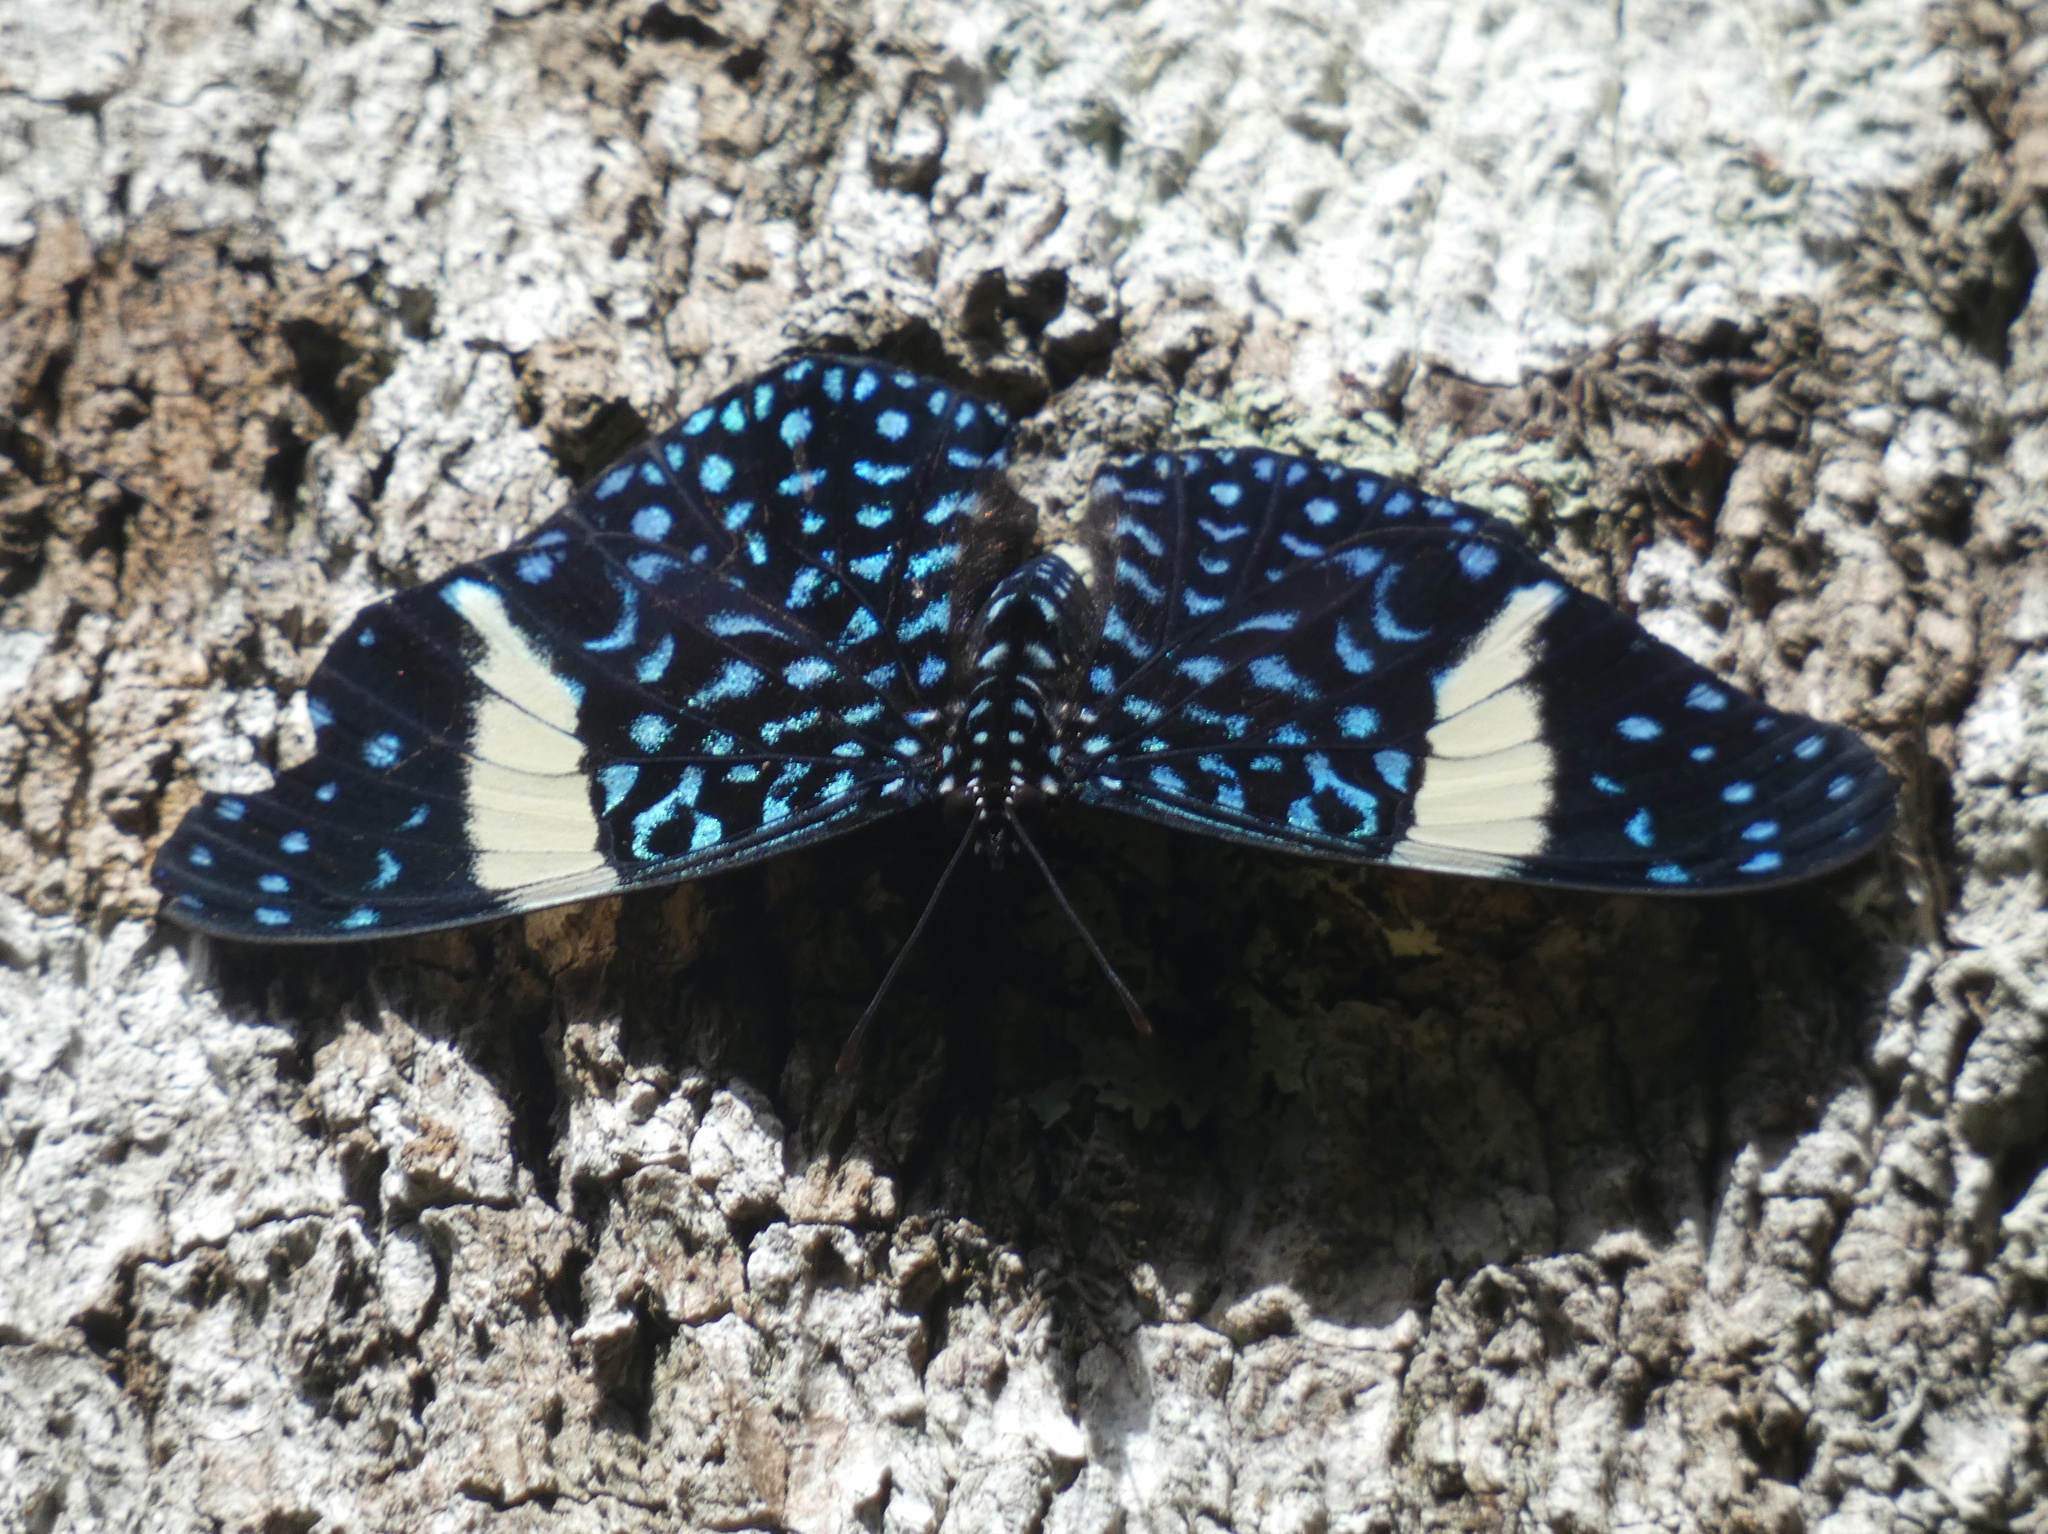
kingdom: Animalia
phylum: Arthropoda
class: Insecta
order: Lepidoptera
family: Nymphalidae
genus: Hamadryas
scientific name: Hamadryas laodamia
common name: Starry night cracker
